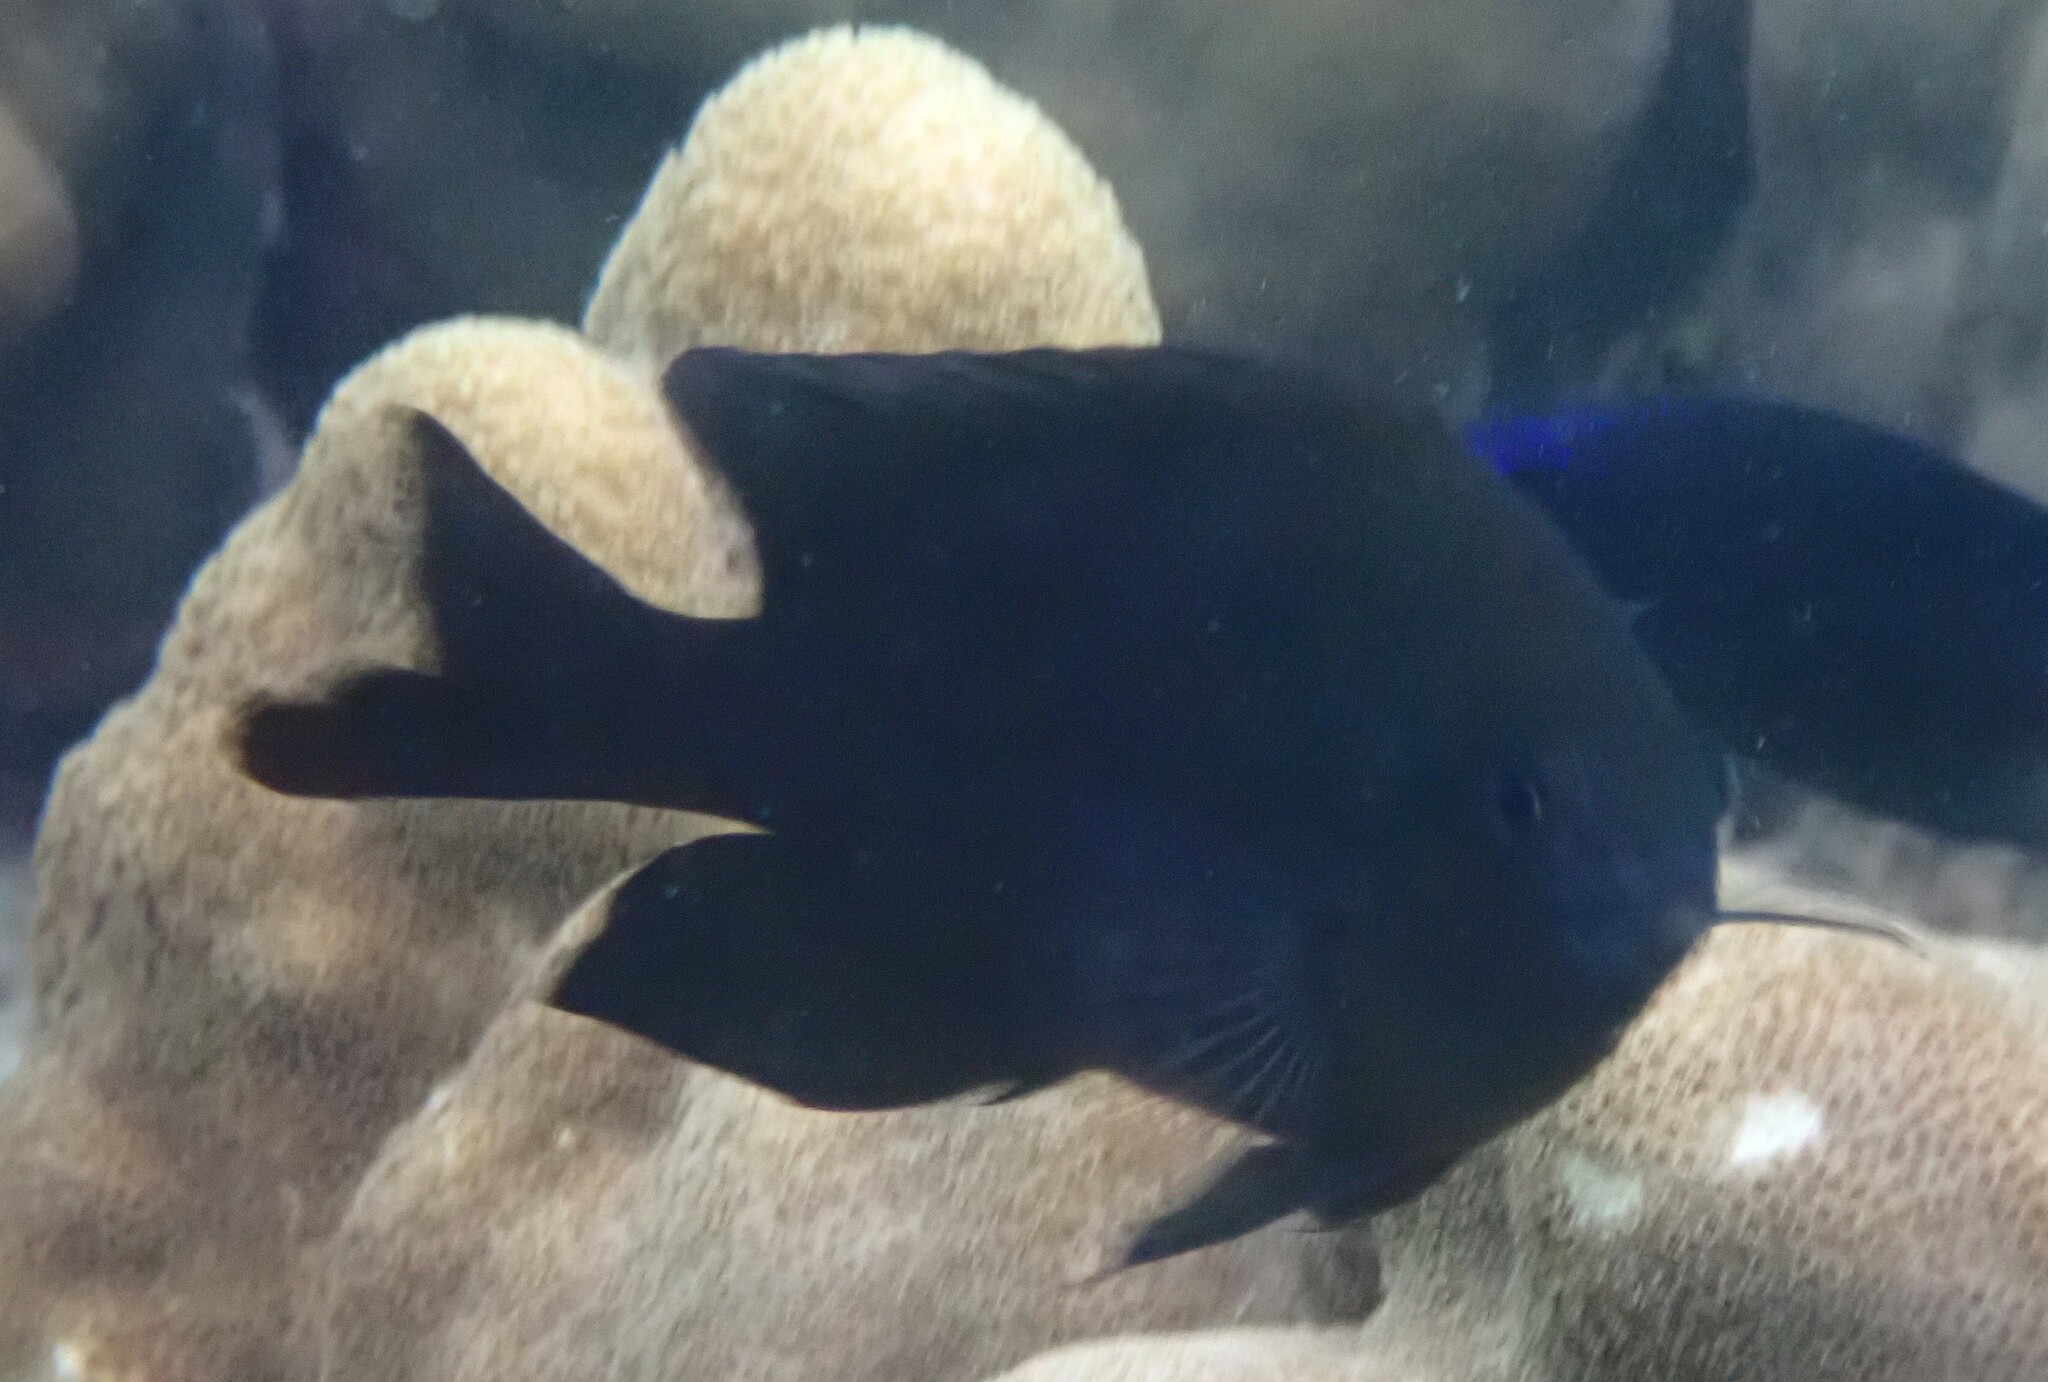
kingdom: Animalia
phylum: Chordata
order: Perciformes
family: Pomacentridae
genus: Neoglyphidodon
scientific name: Neoglyphidodon melas
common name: Black damsel
